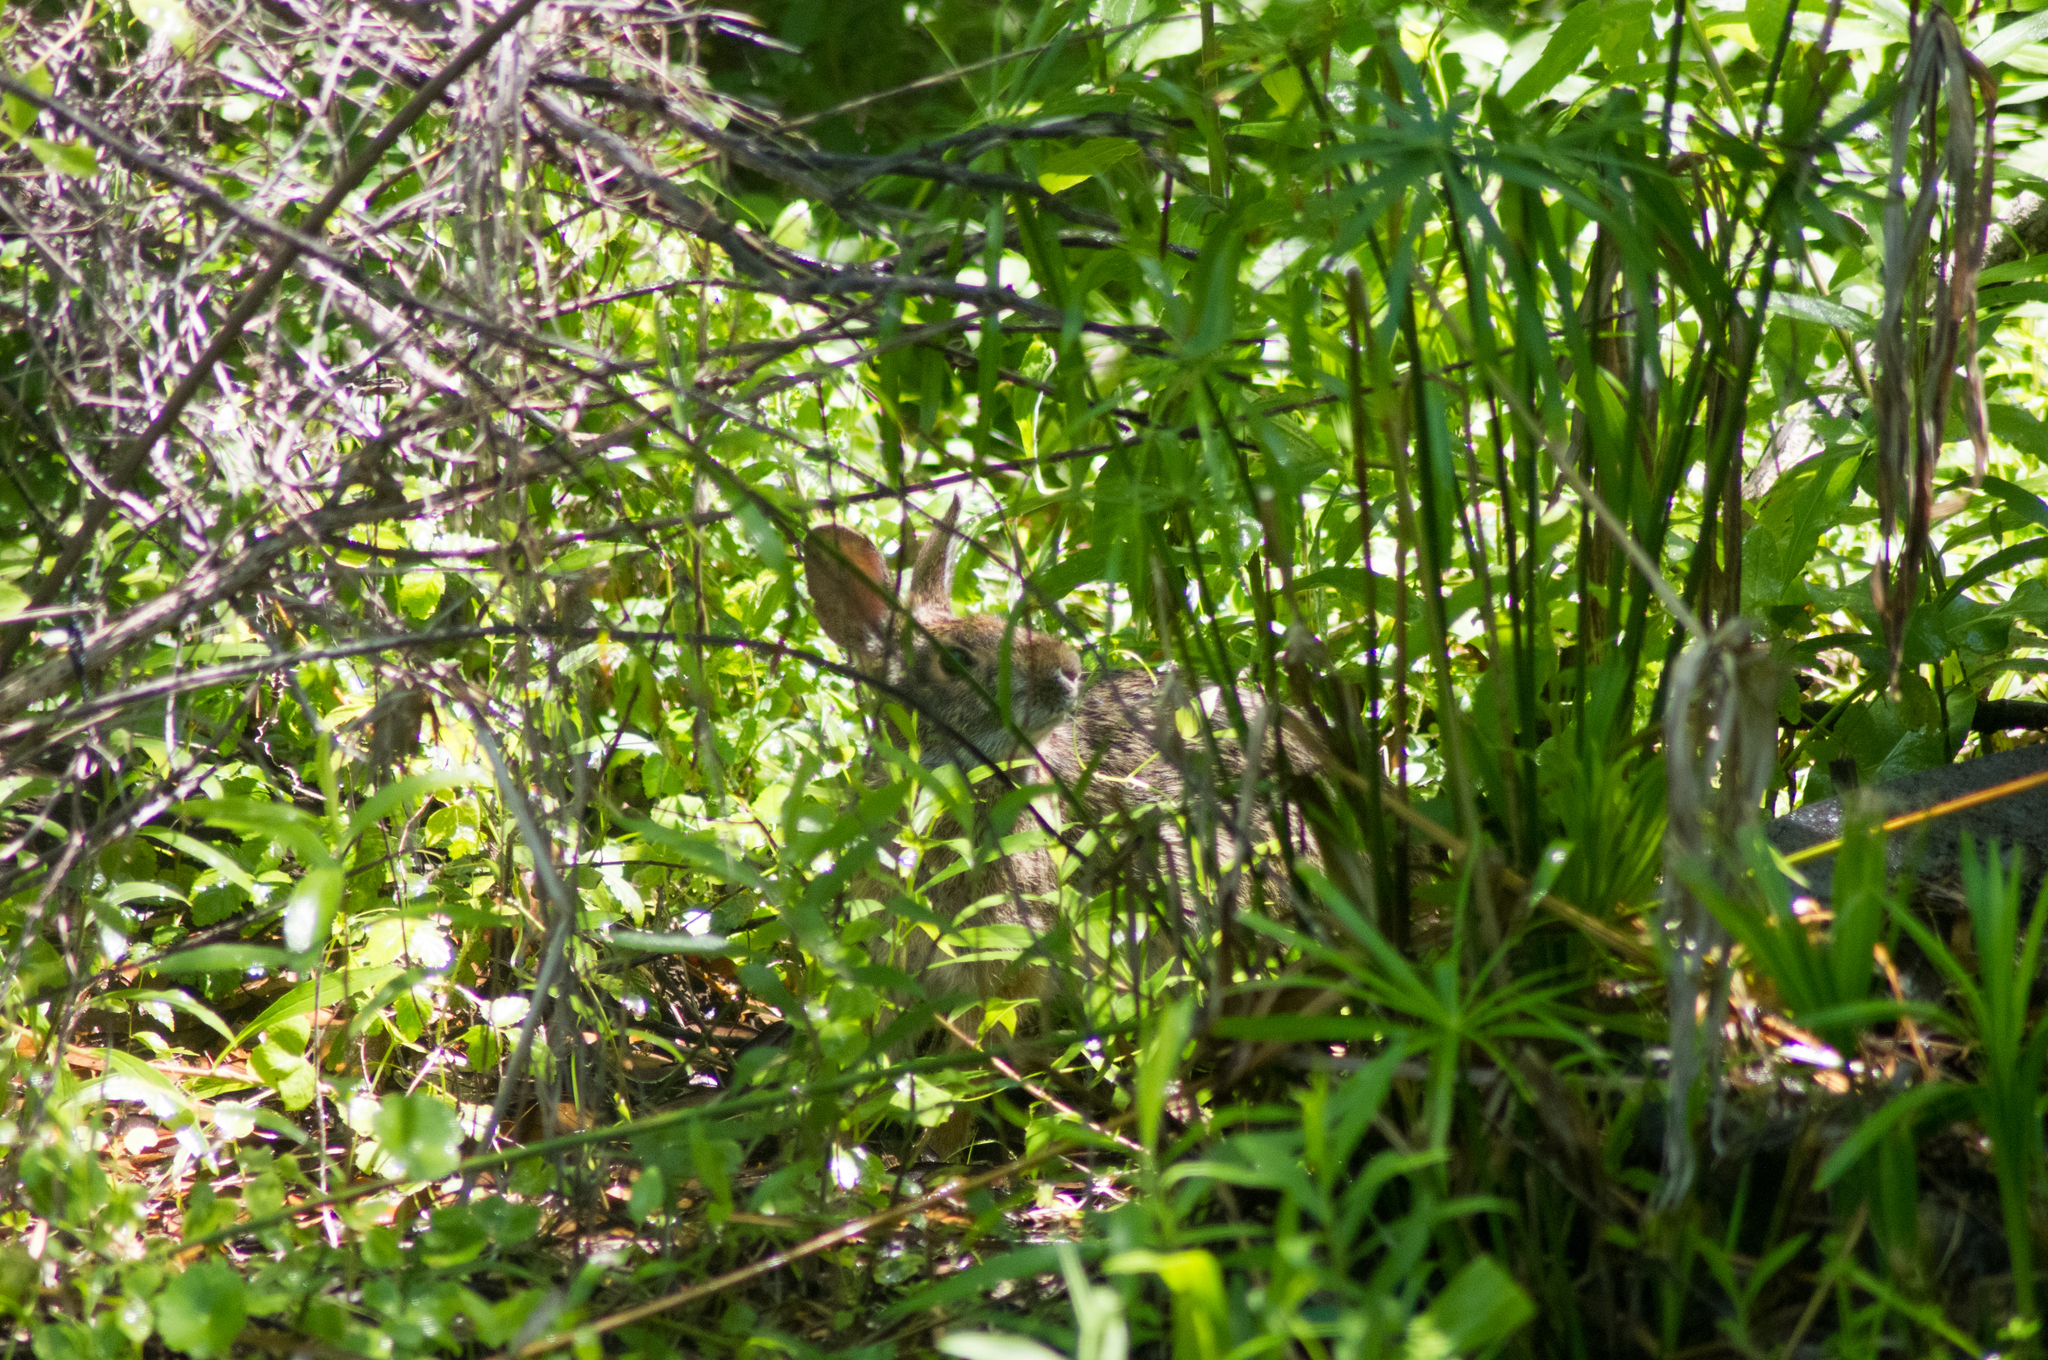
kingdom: Animalia
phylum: Chordata
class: Mammalia
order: Lagomorpha
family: Leporidae
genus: Sylvilagus
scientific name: Sylvilagus aquaticus
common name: Swamp rabbit
